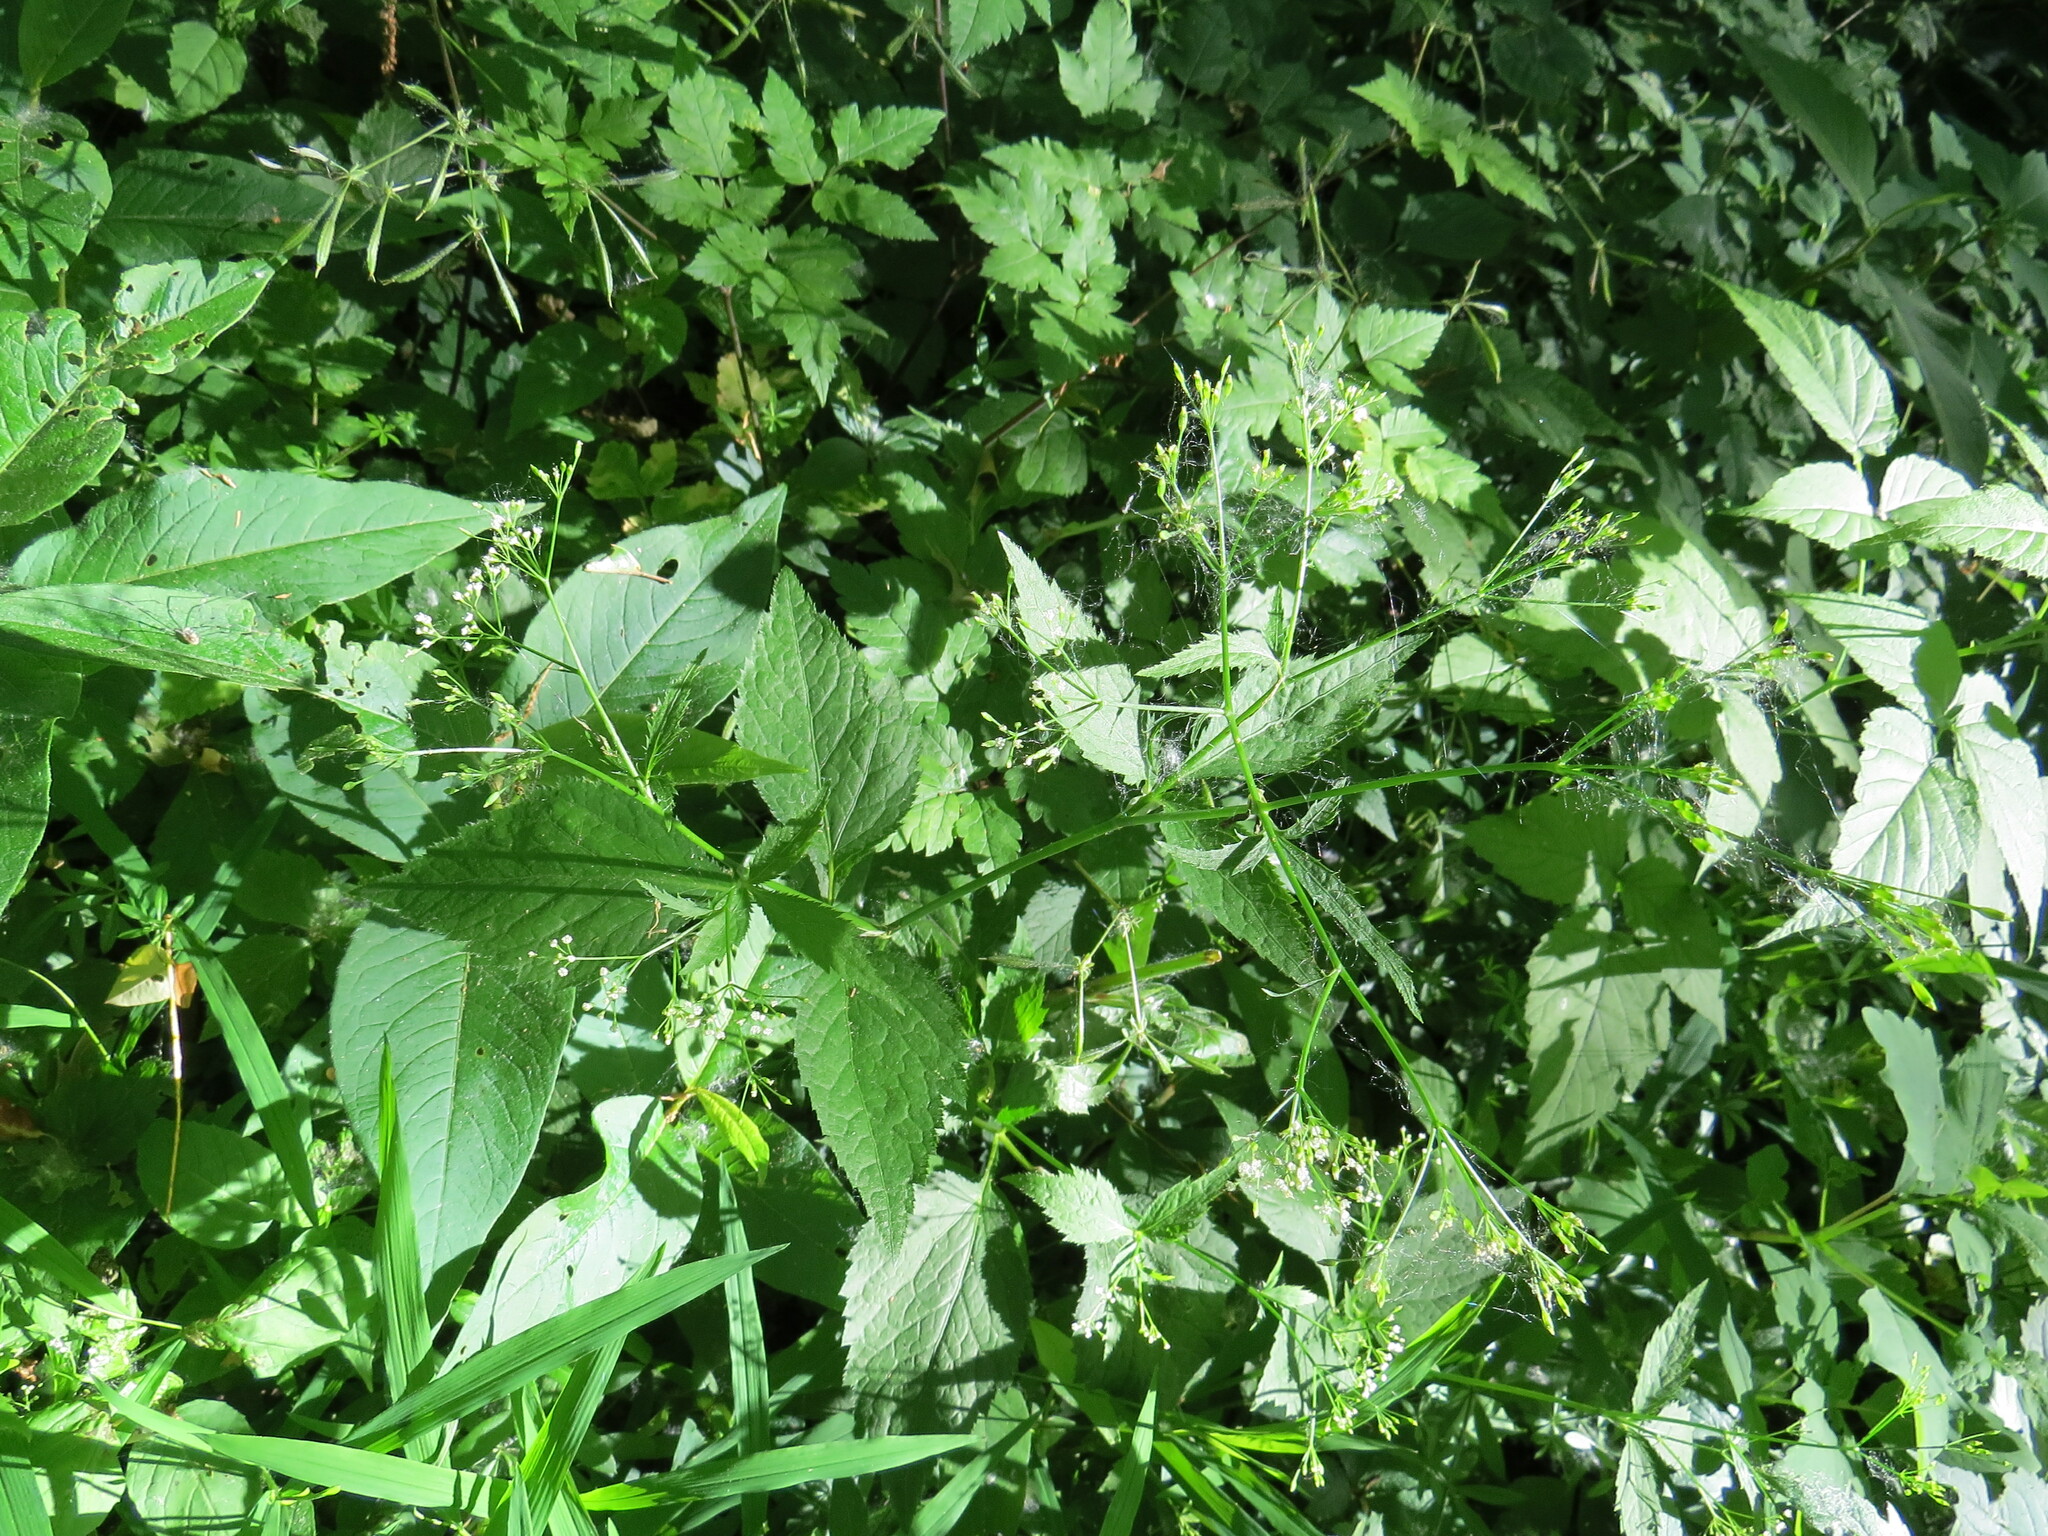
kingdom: Plantae
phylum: Tracheophyta
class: Magnoliopsida
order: Apiales
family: Apiaceae
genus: Cryptotaenia
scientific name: Cryptotaenia canadensis
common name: Honewort
